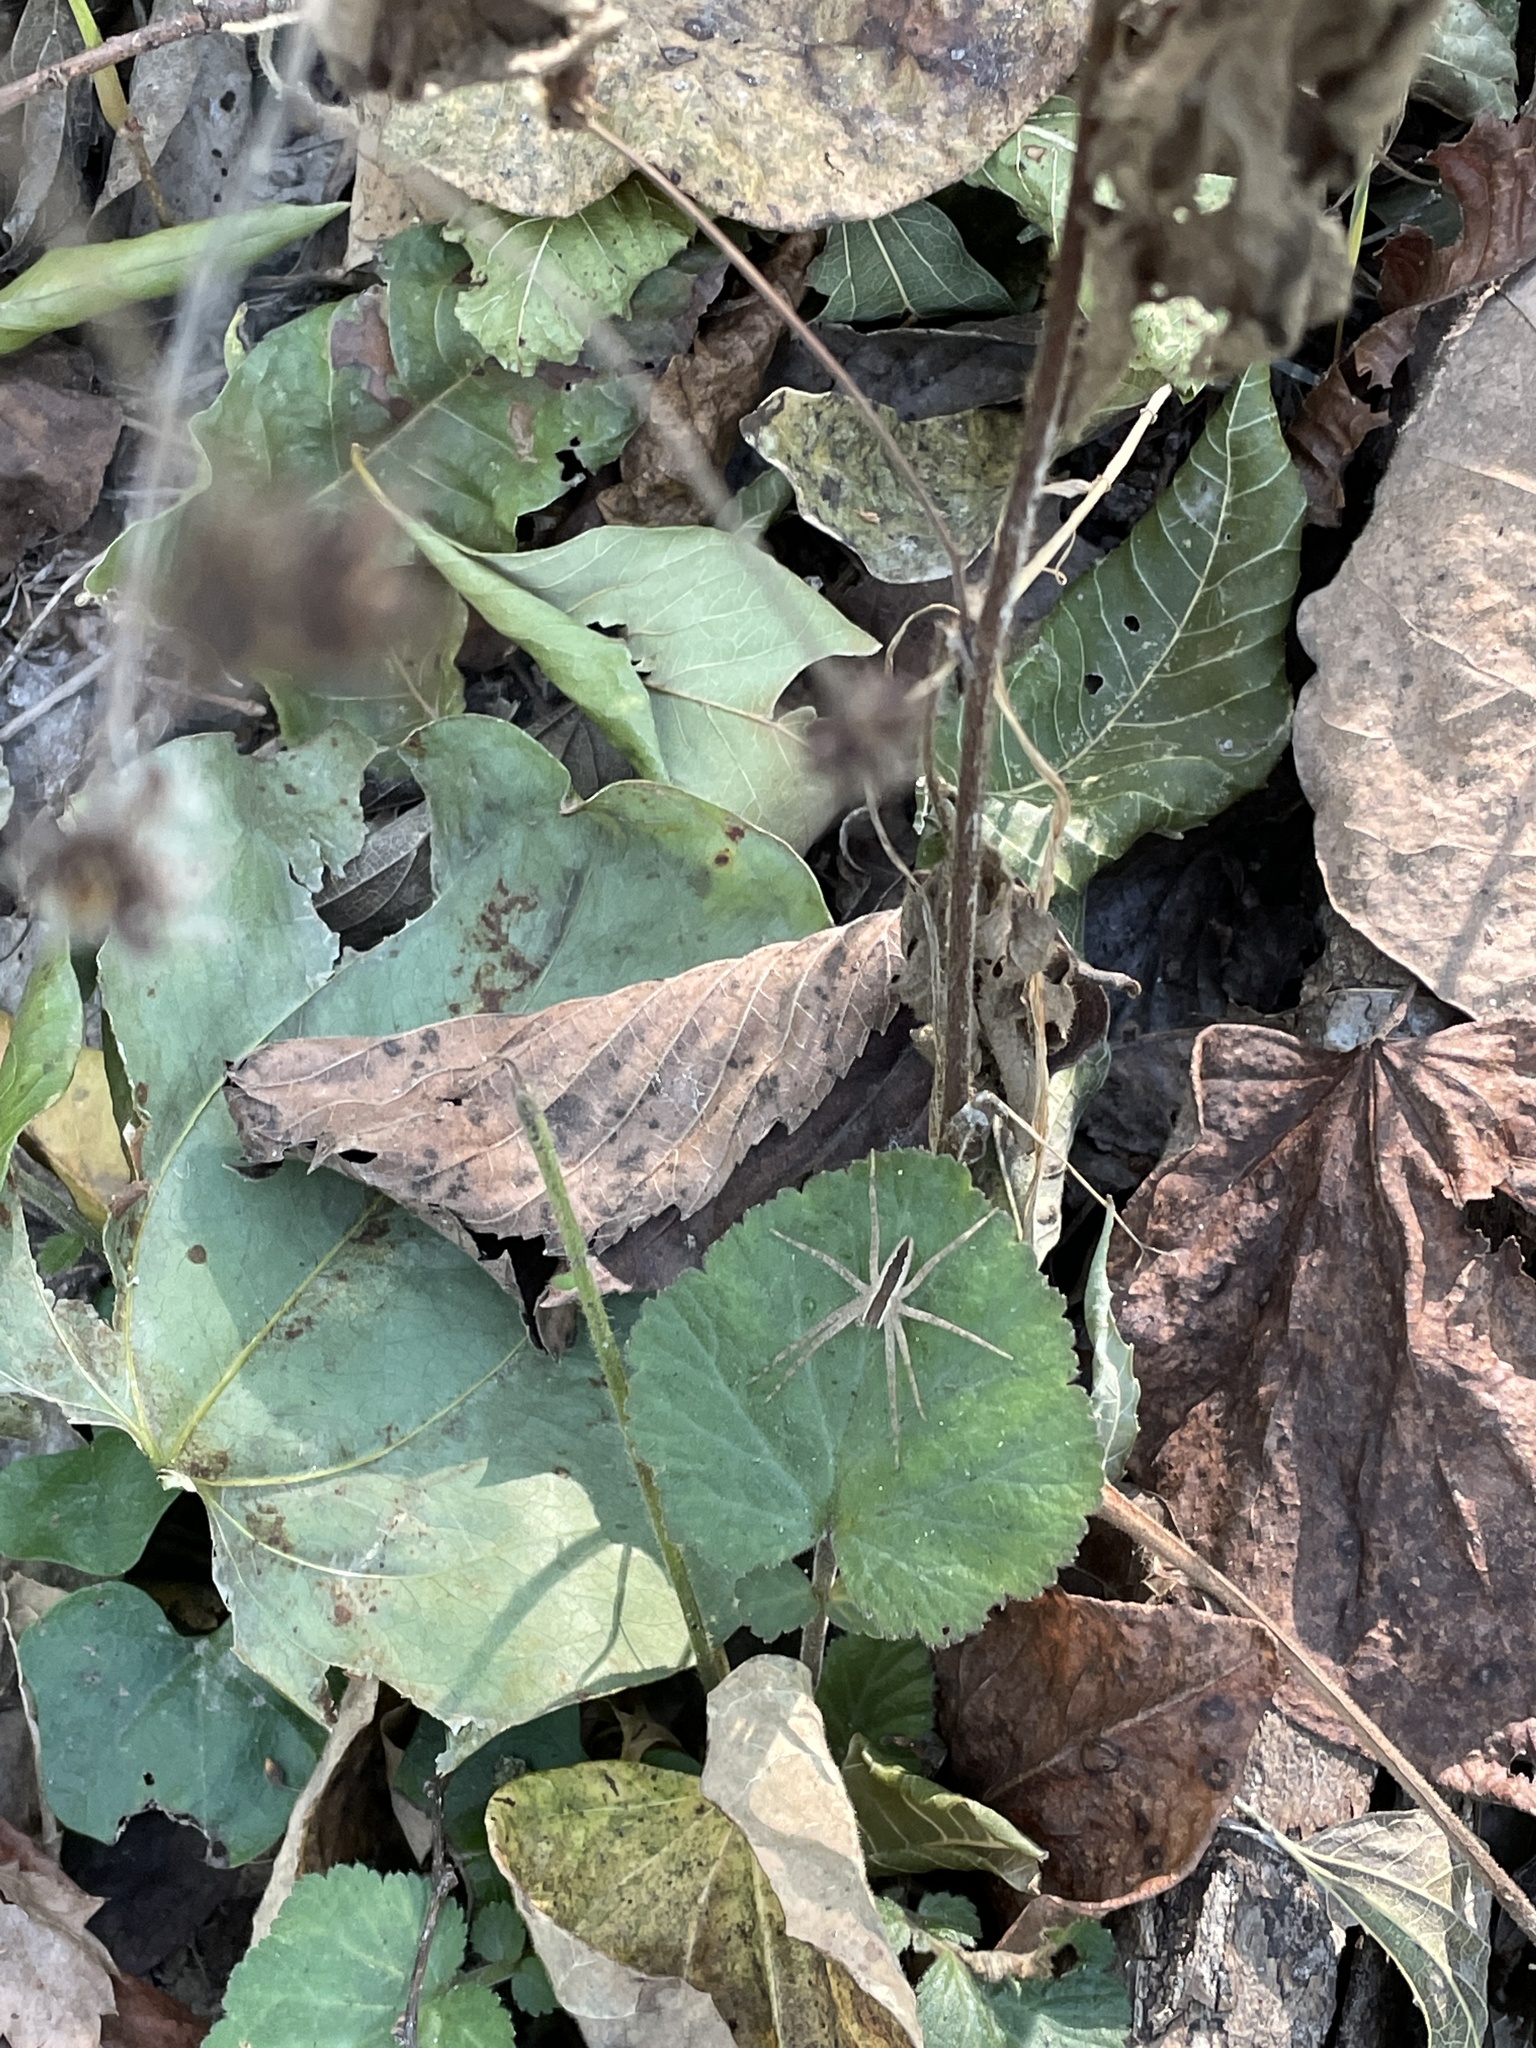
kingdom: Animalia
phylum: Arthropoda
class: Arachnida
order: Araneae
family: Pisauridae
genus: Pisaurina
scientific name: Pisaurina mira
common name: American nursery web spider
